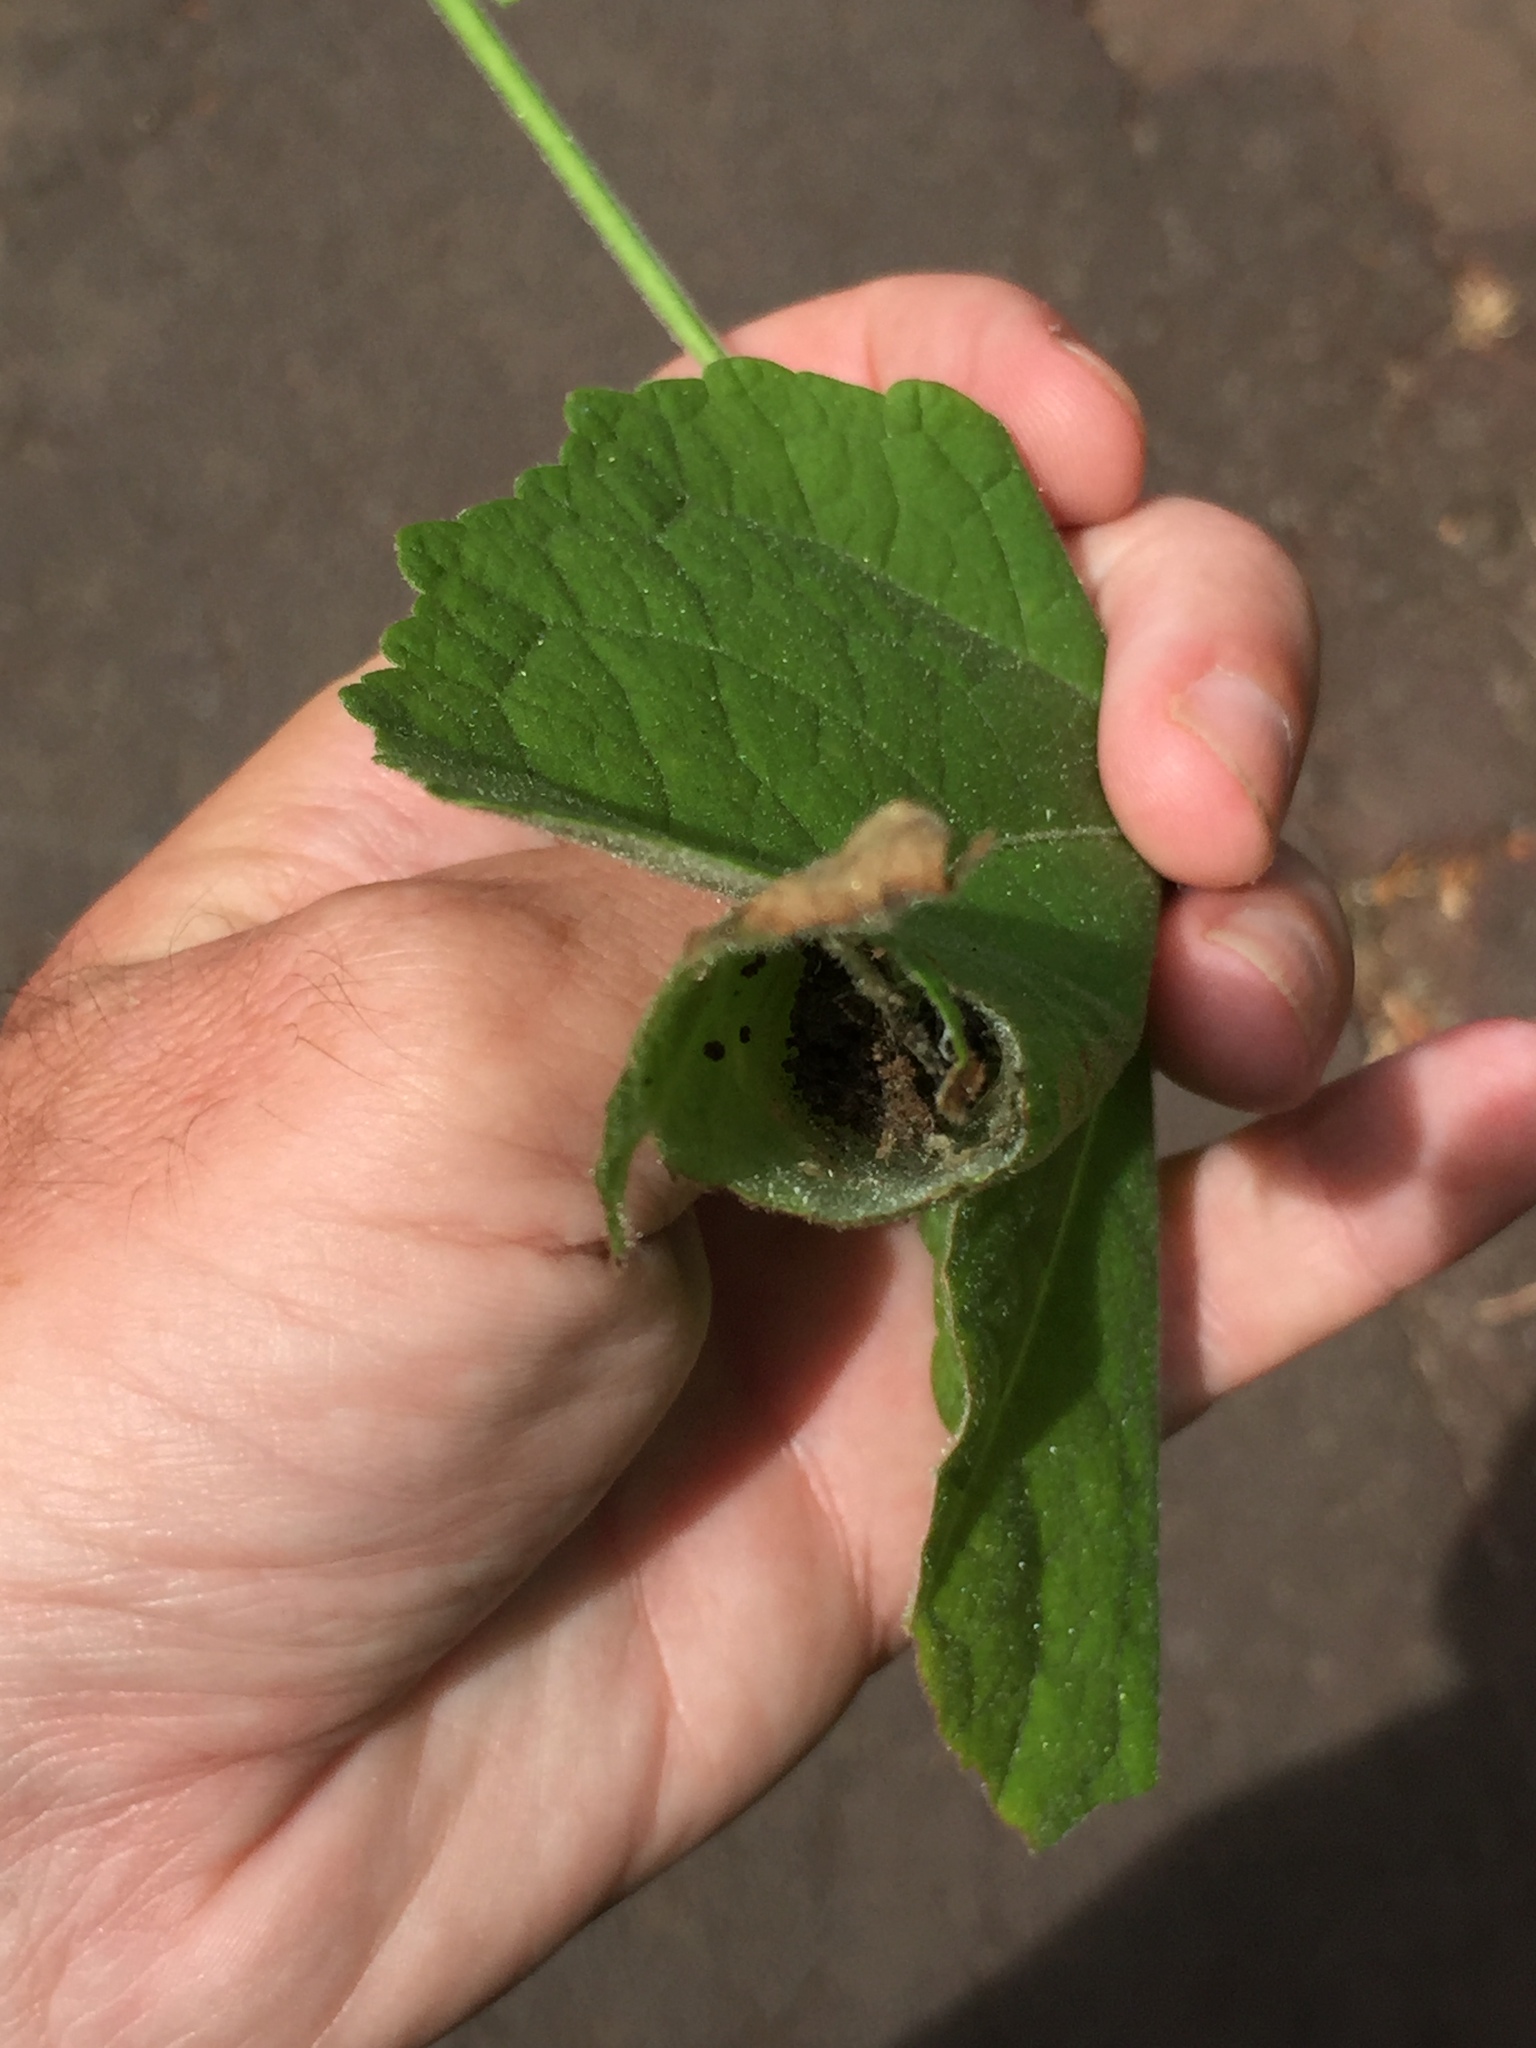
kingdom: Animalia
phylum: Arthropoda
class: Insecta
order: Lepidoptera
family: Crambidae
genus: Haritalodes
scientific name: Haritalodes derogata
